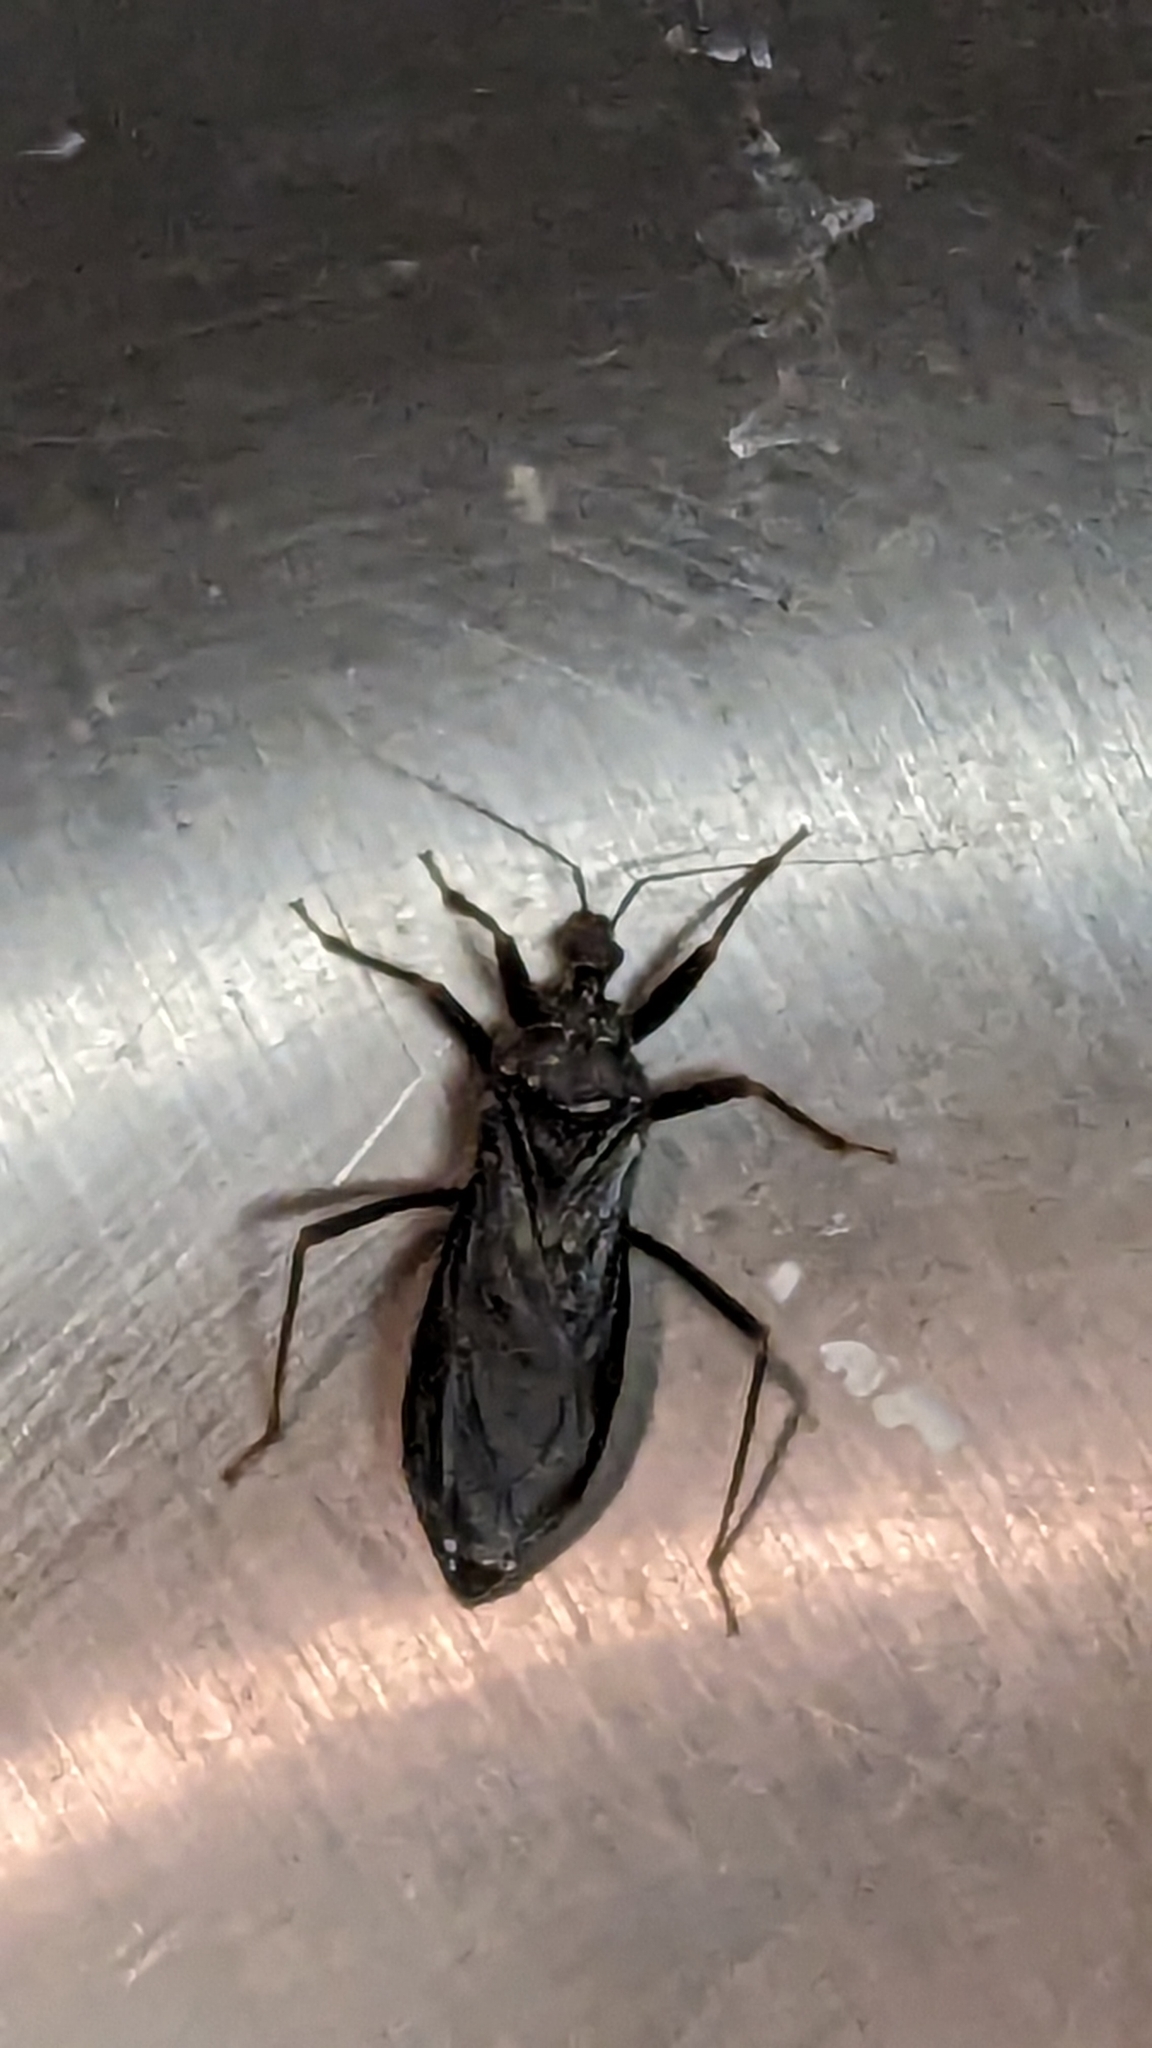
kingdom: Animalia
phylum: Arthropoda
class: Insecta
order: Hemiptera
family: Reduviidae
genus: Reduvius
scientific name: Reduvius personatus
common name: Masked hunter
